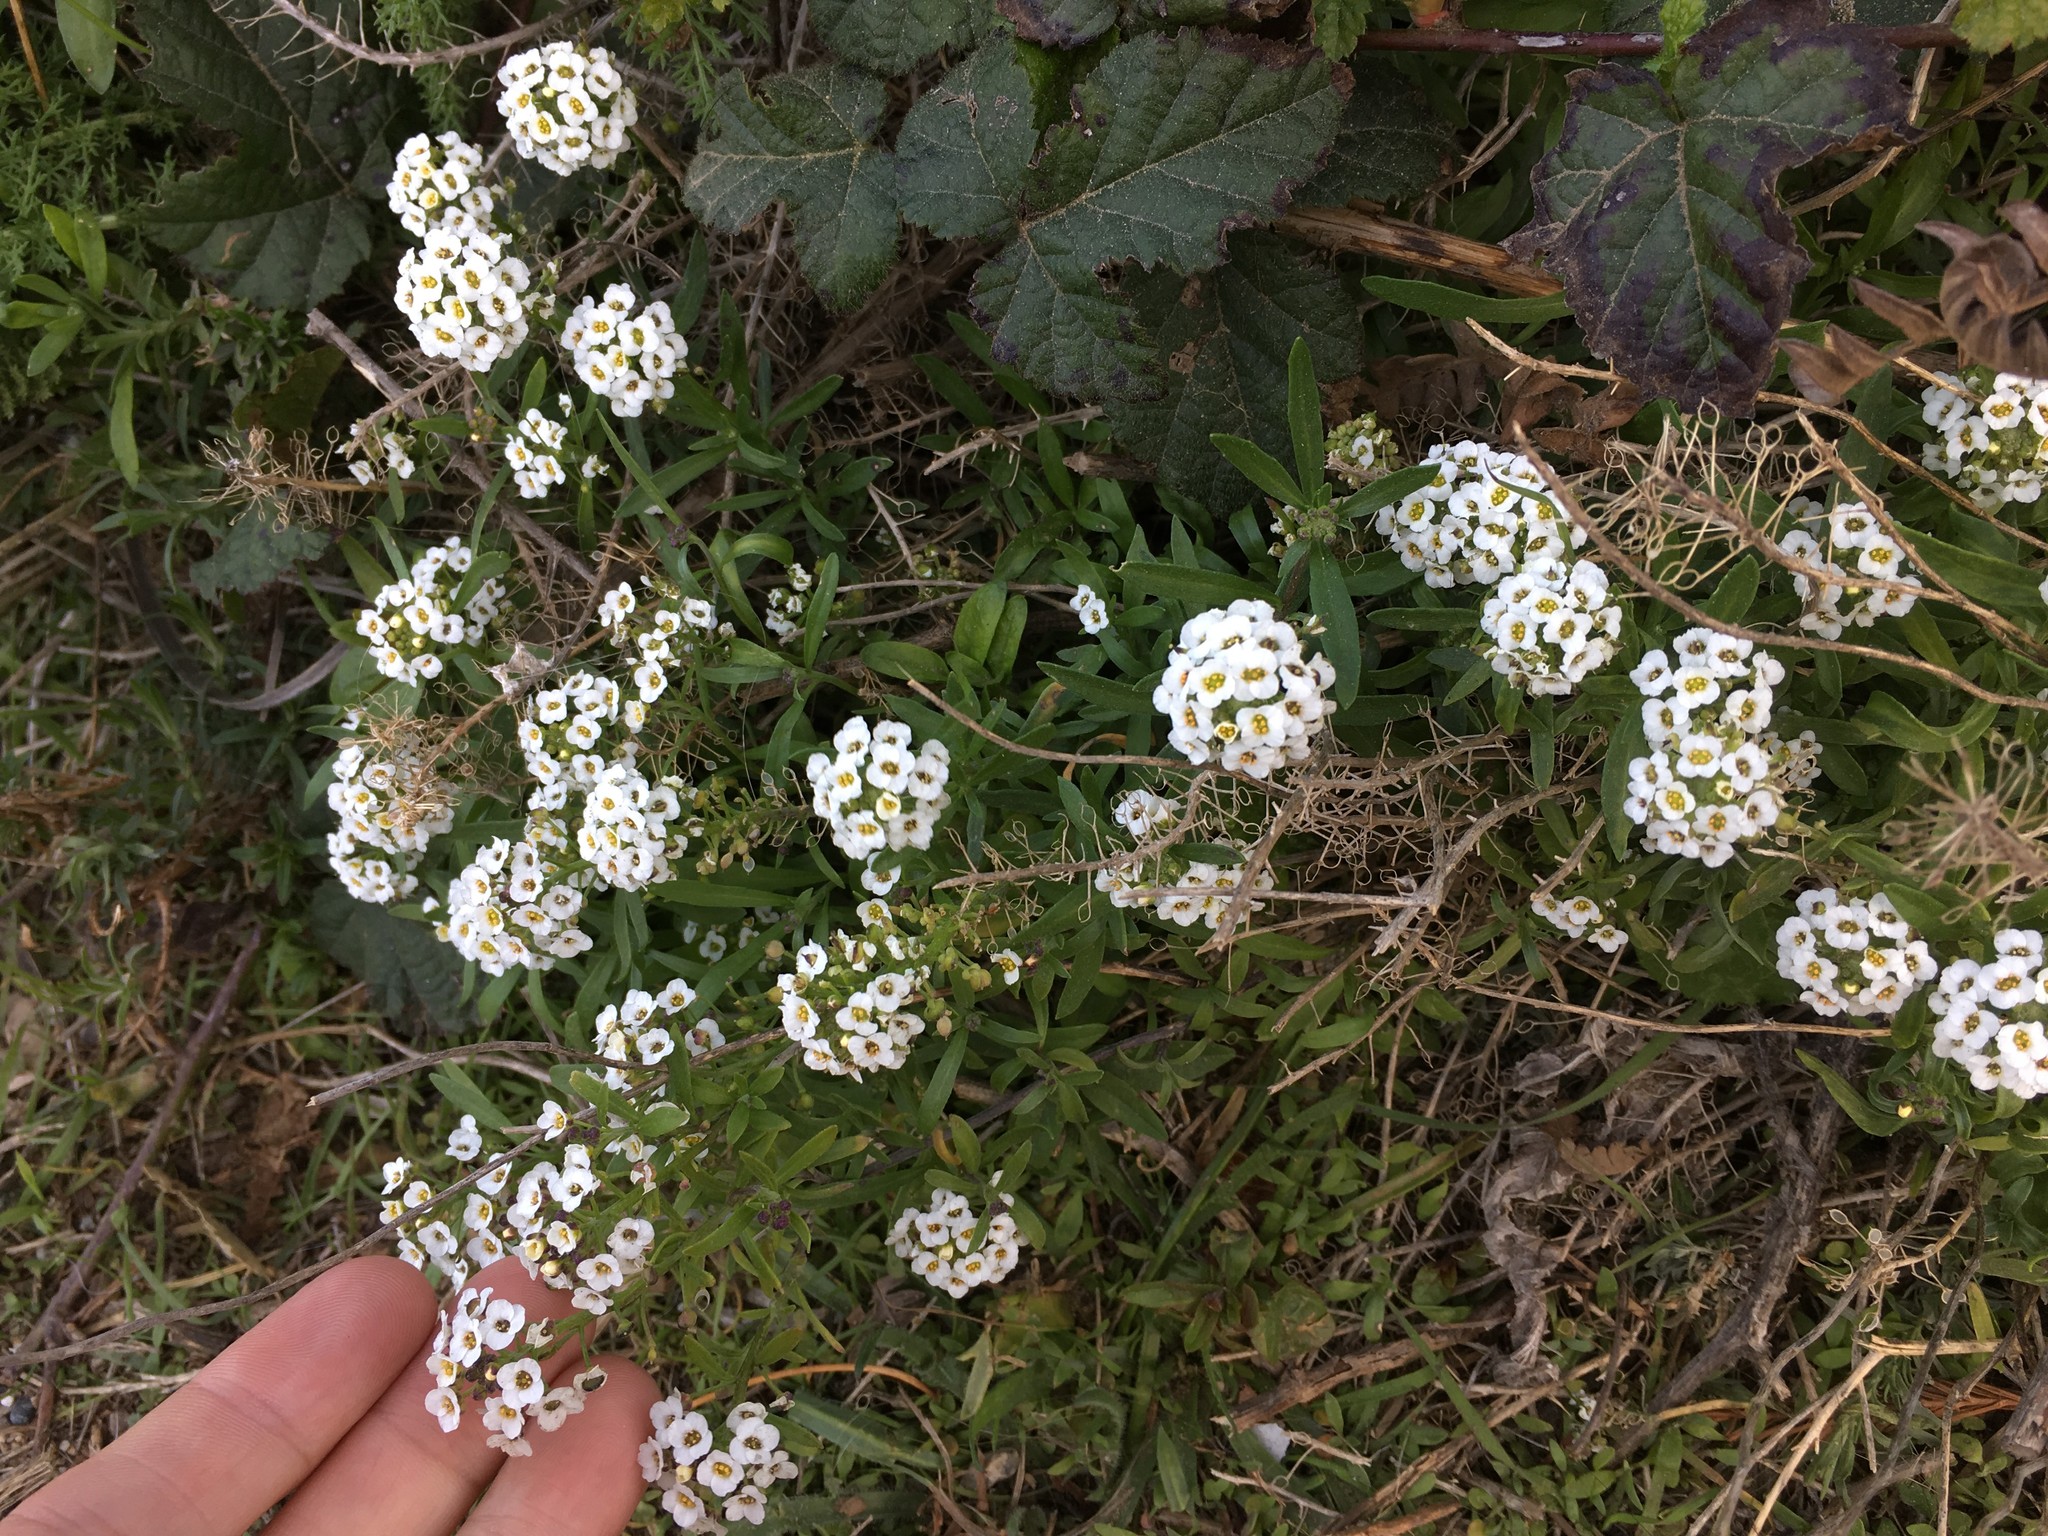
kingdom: Plantae
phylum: Tracheophyta
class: Magnoliopsida
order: Brassicales
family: Brassicaceae
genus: Lobularia
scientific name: Lobularia maritima
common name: Sweet alison
